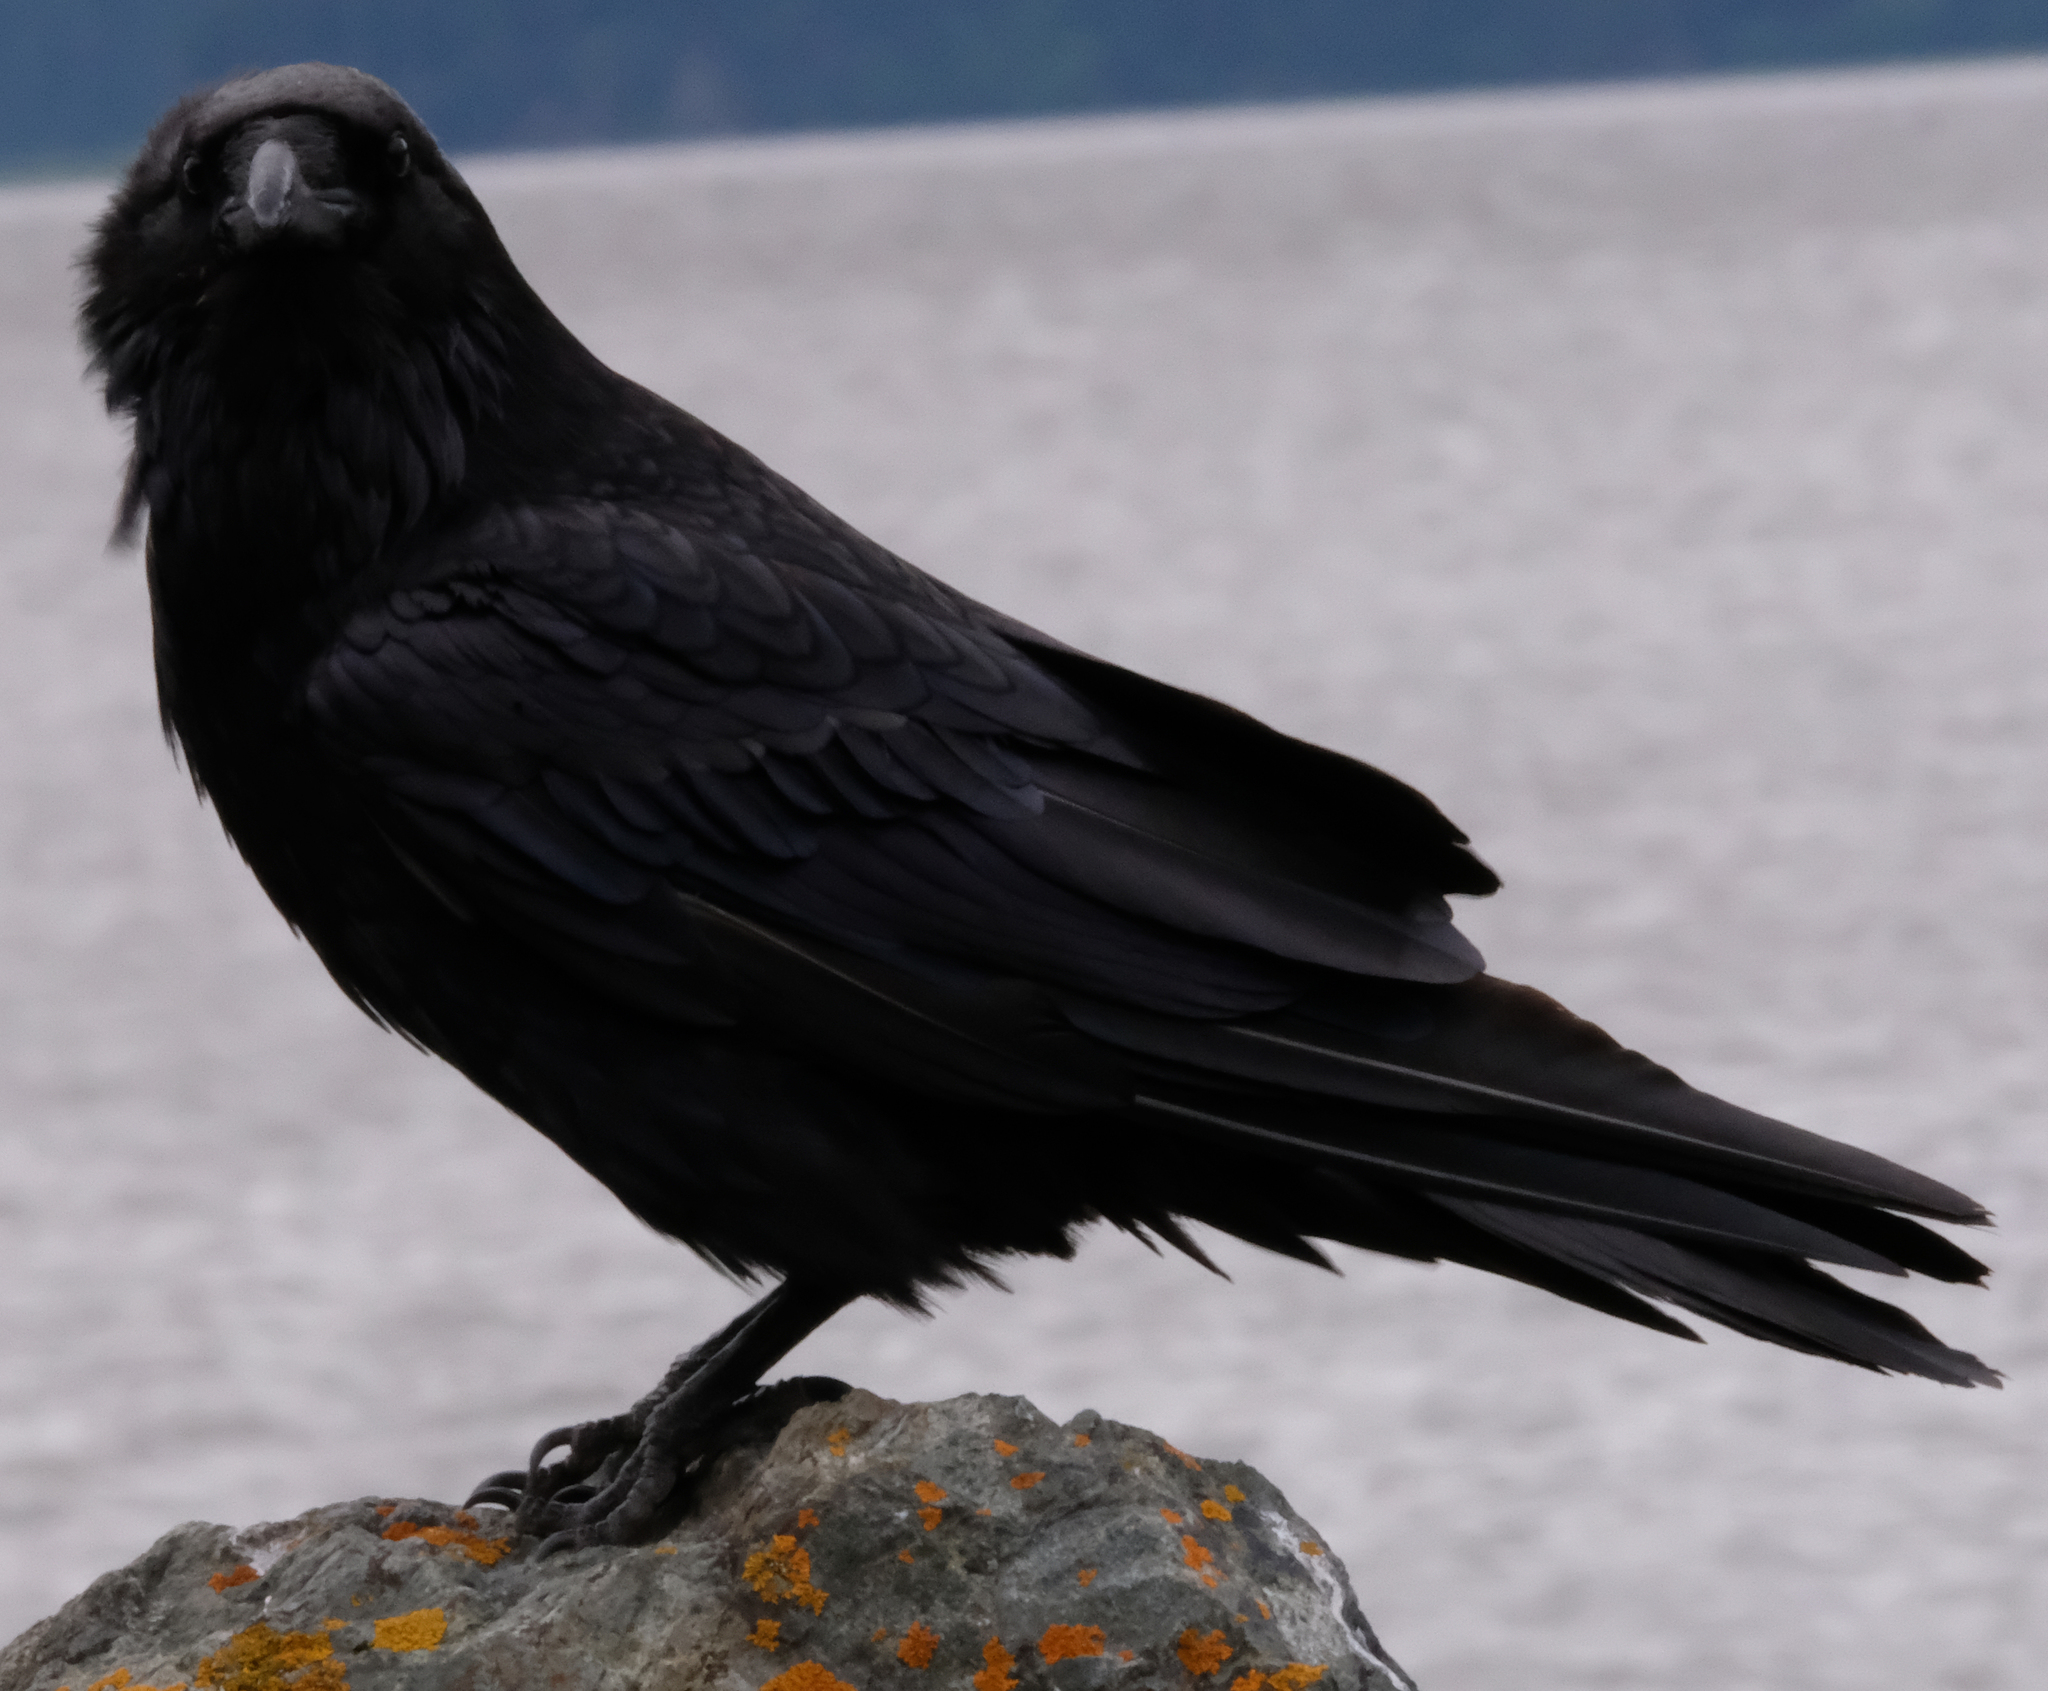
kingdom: Animalia
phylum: Chordata
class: Aves
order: Passeriformes
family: Corvidae
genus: Corvus
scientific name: Corvus corax
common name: Common raven
